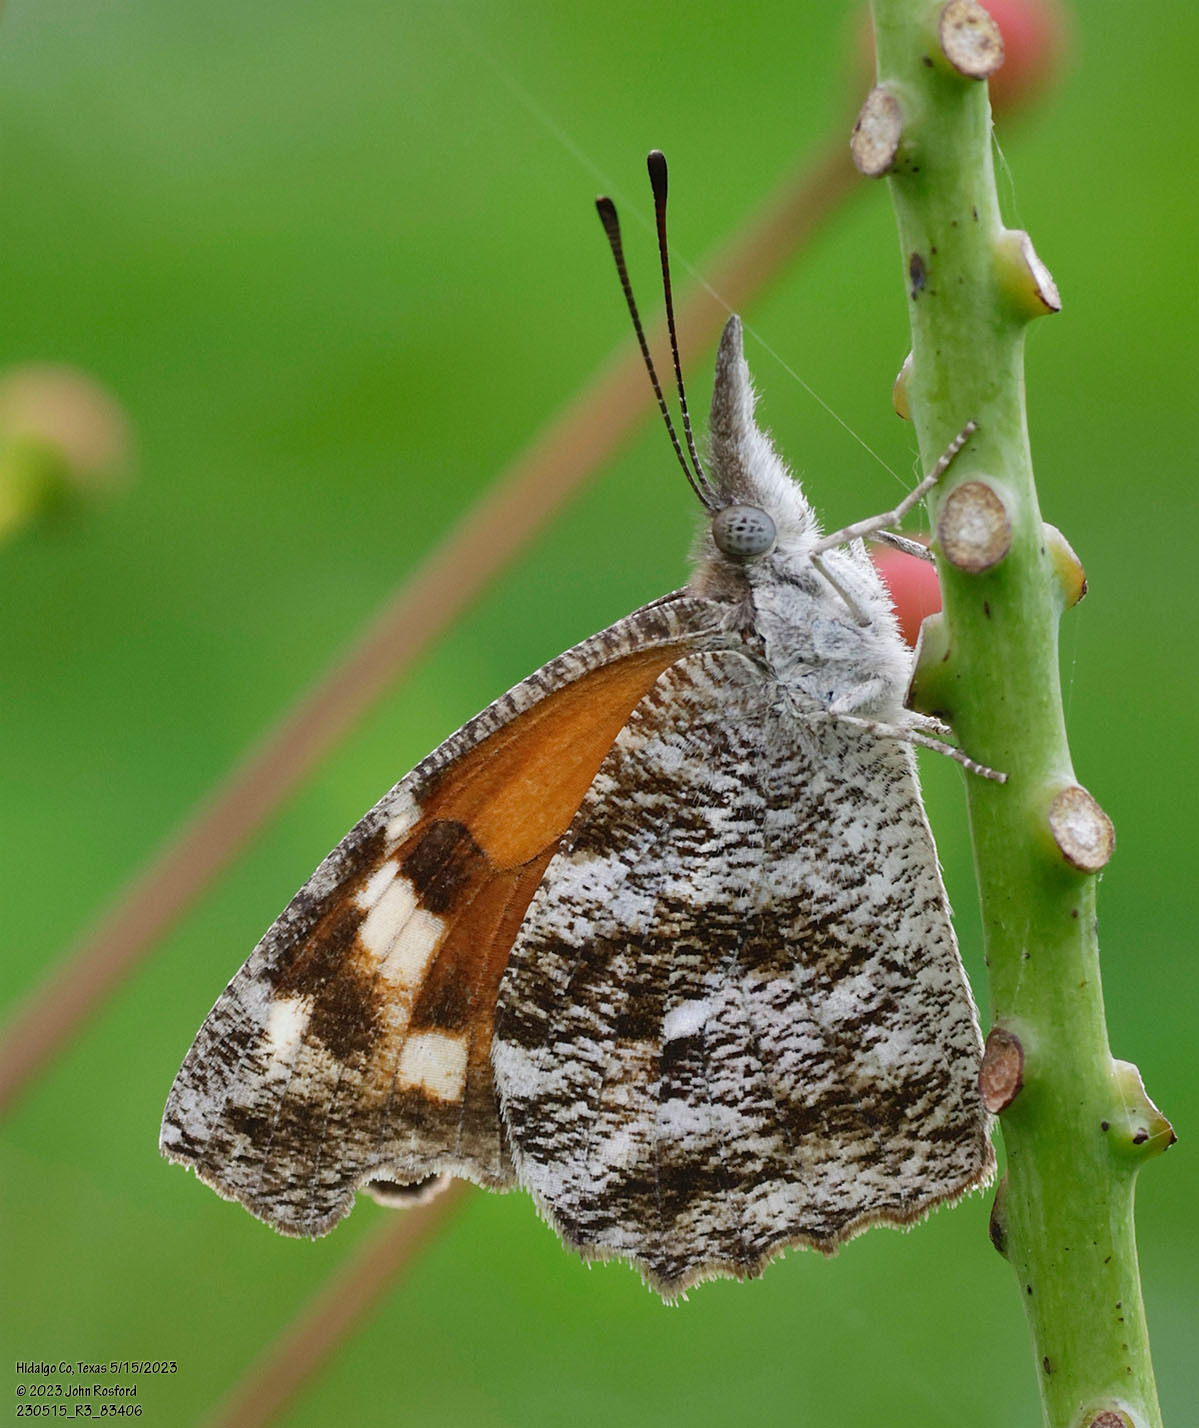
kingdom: Animalia
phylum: Arthropoda
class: Insecta
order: Lepidoptera
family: Nymphalidae
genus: Libytheana
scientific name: Libytheana carinenta
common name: American snout
